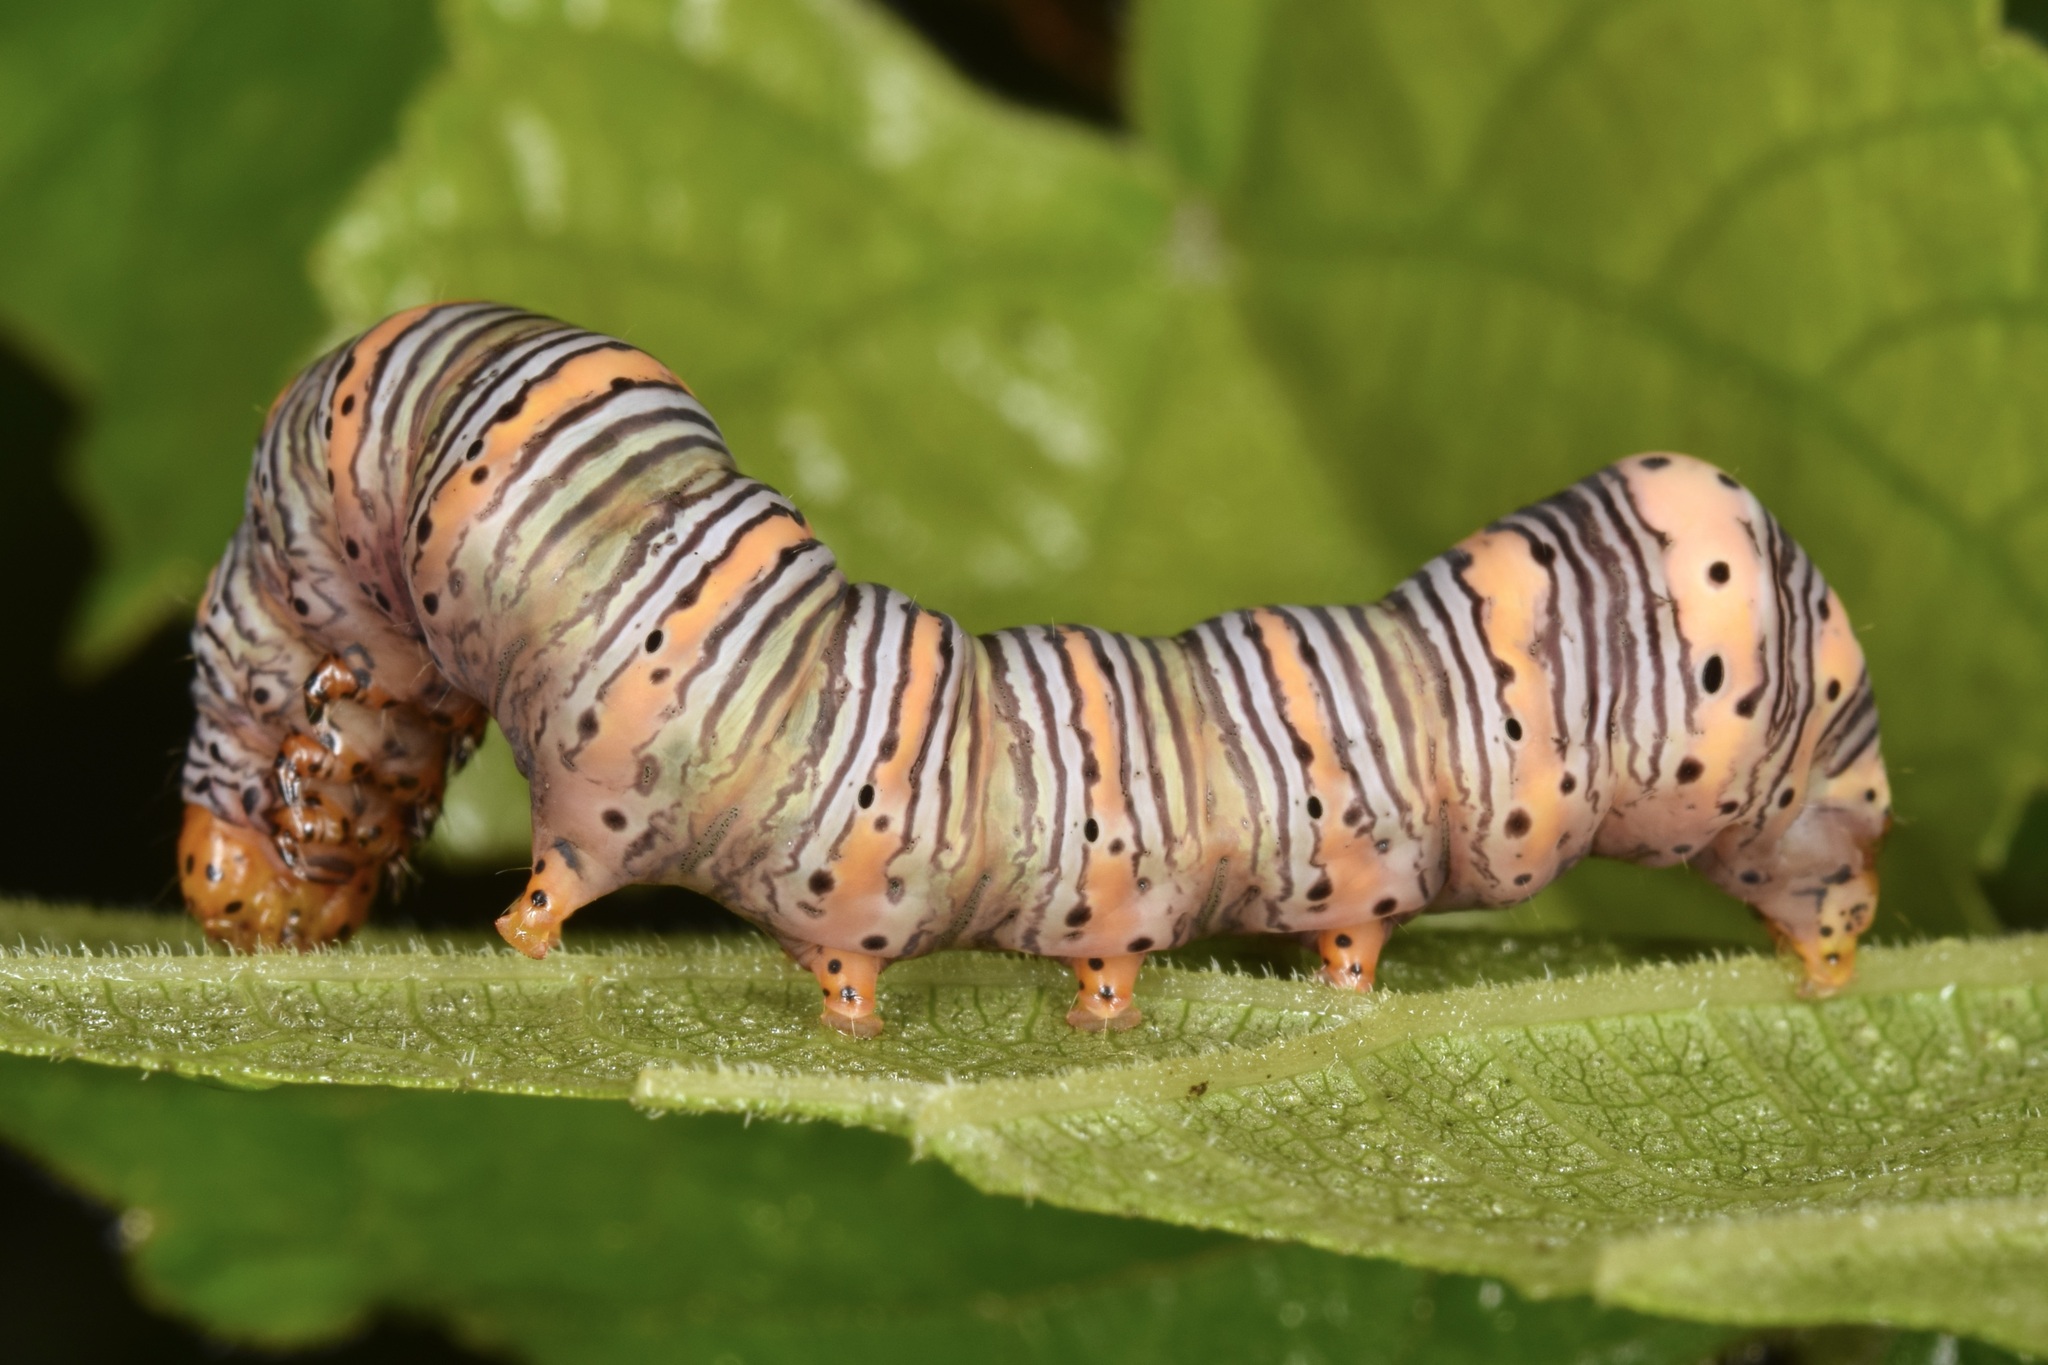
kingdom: Animalia
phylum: Arthropoda
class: Insecta
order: Lepidoptera
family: Noctuidae
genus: Eudryas
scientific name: Eudryas grata
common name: Beautiful wood-nymph
